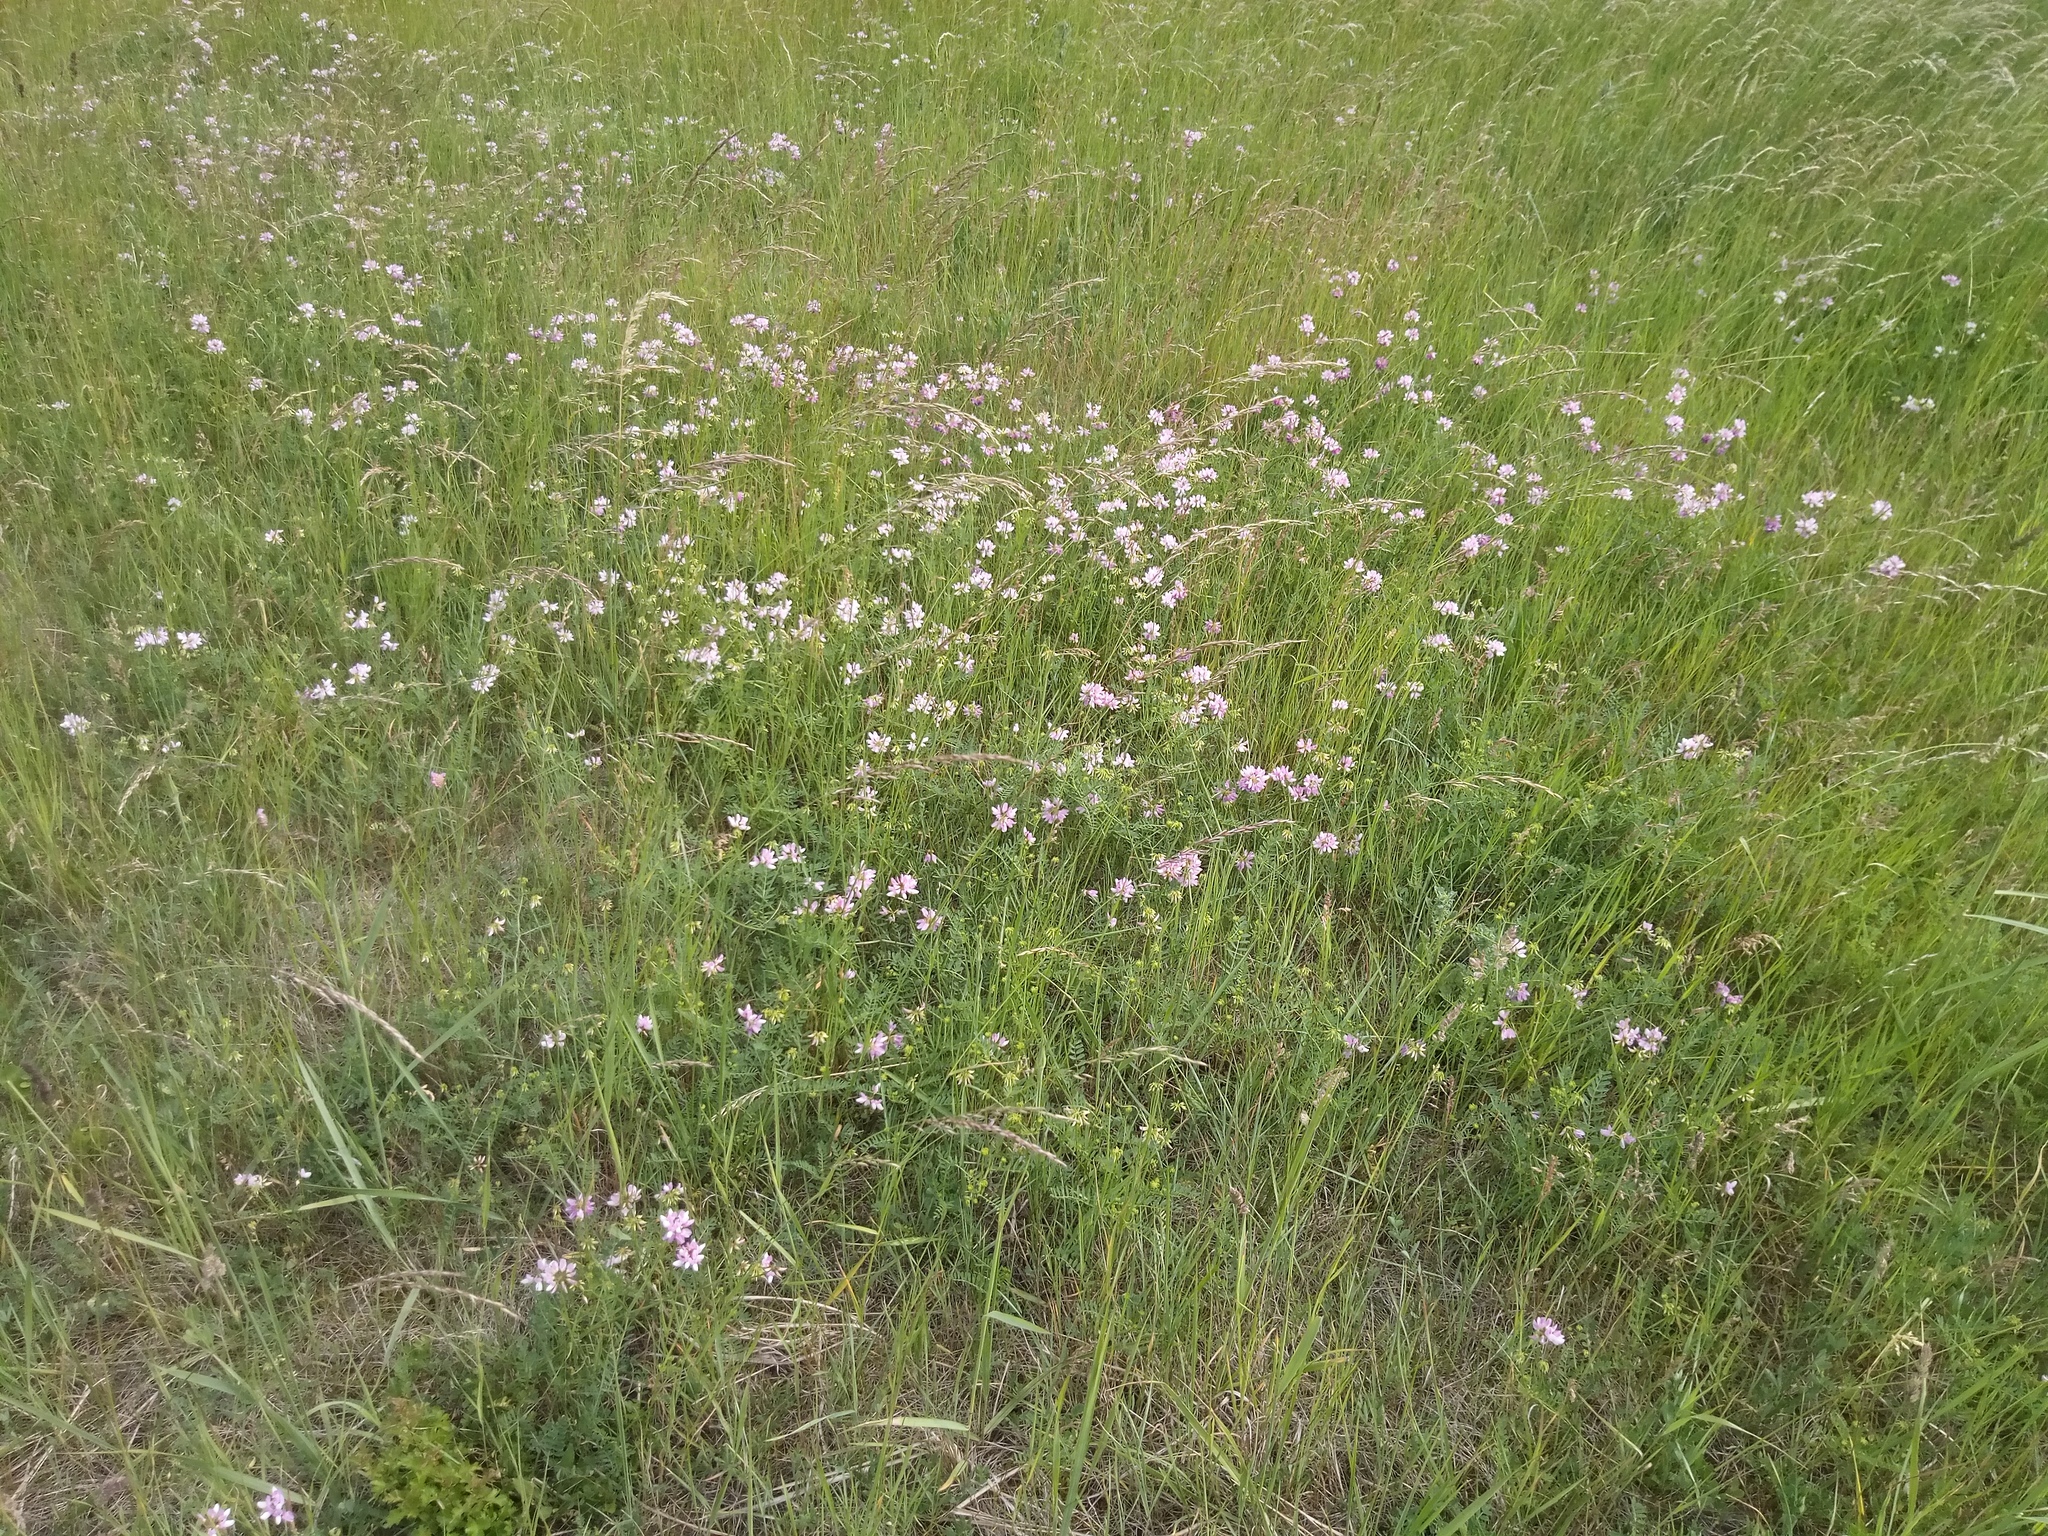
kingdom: Plantae
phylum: Tracheophyta
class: Magnoliopsida
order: Fabales
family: Fabaceae
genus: Coronilla
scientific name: Coronilla varia
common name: Crownvetch
